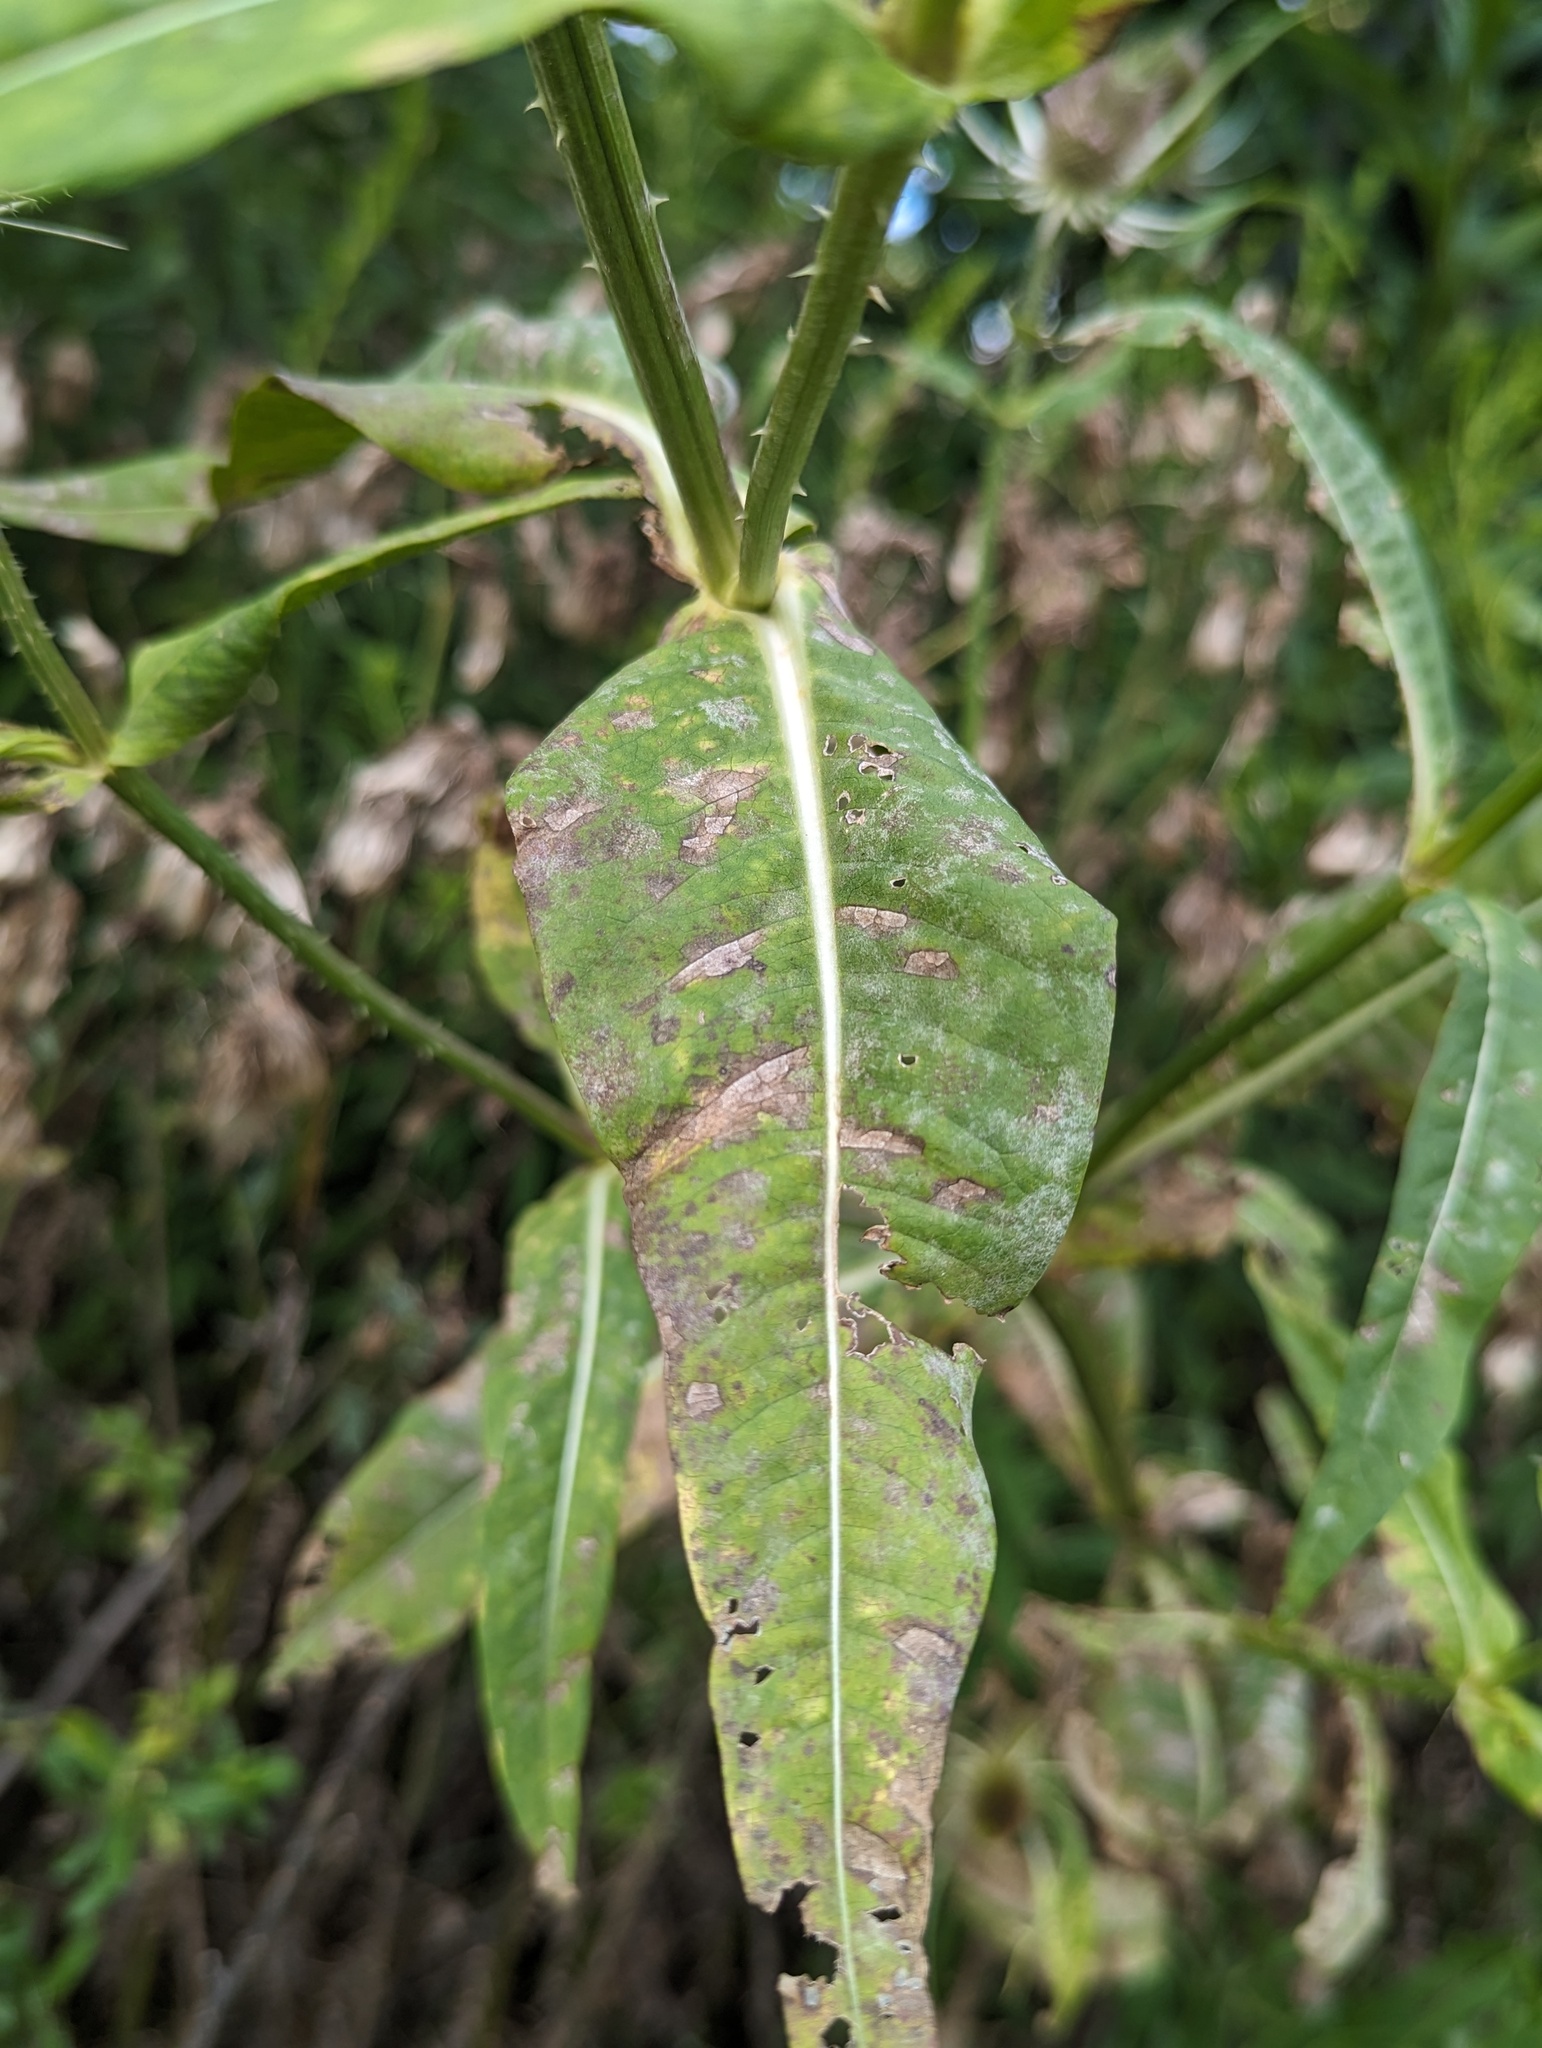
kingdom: Plantae
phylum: Tracheophyta
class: Magnoliopsida
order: Dipsacales
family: Caprifoliaceae
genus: Dipsacus
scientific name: Dipsacus fullonum
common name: Teasel
